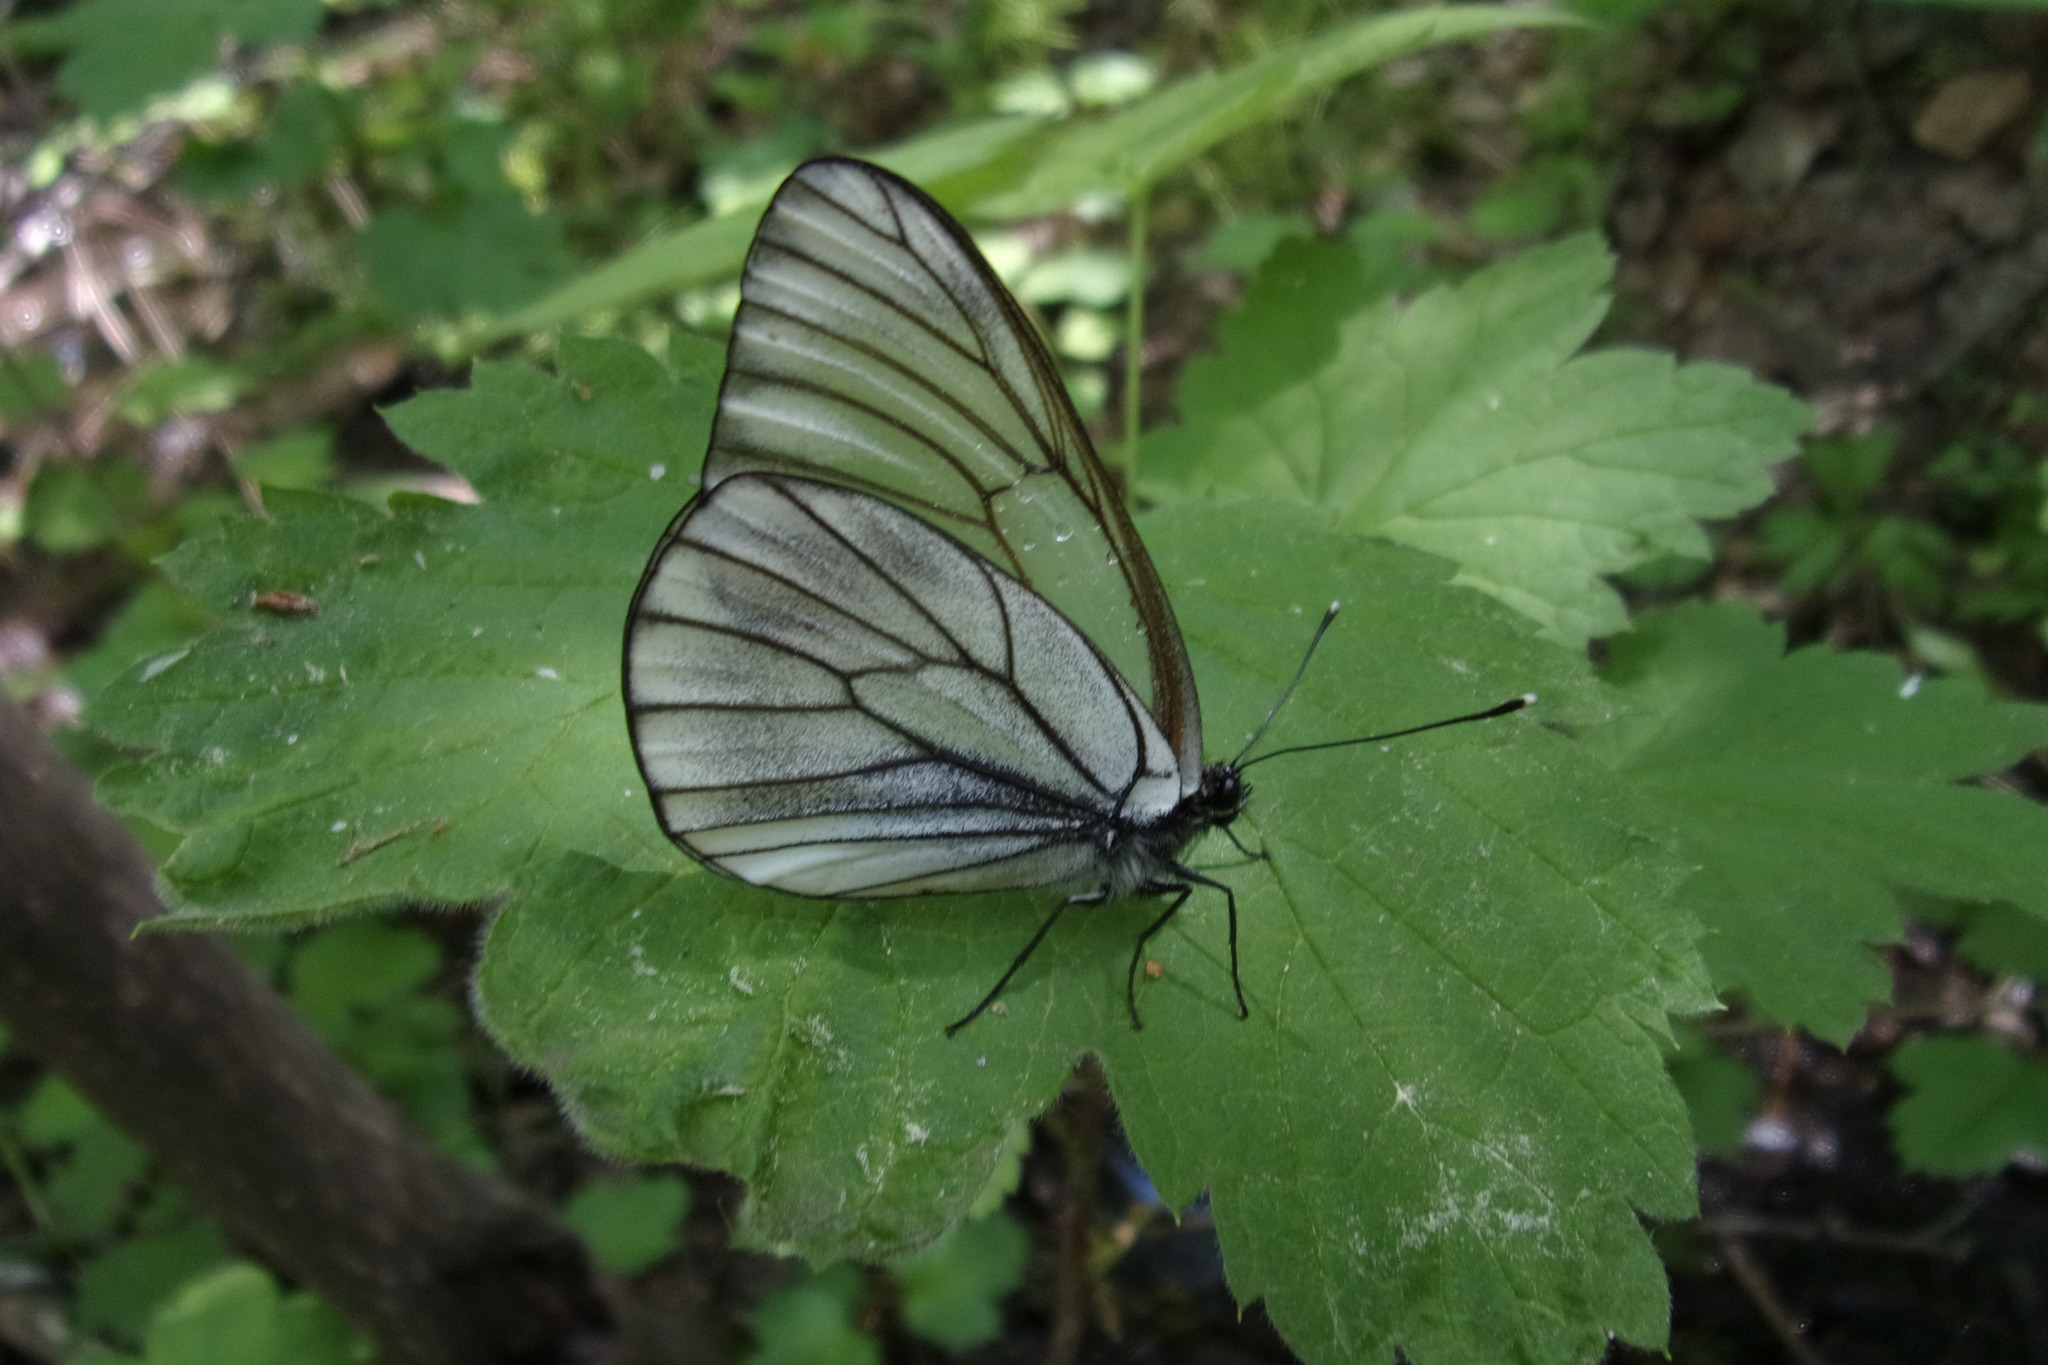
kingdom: Animalia
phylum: Arthropoda
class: Insecta
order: Lepidoptera
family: Pieridae
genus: Aporia
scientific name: Aporia crataegi
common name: Black-veined white
